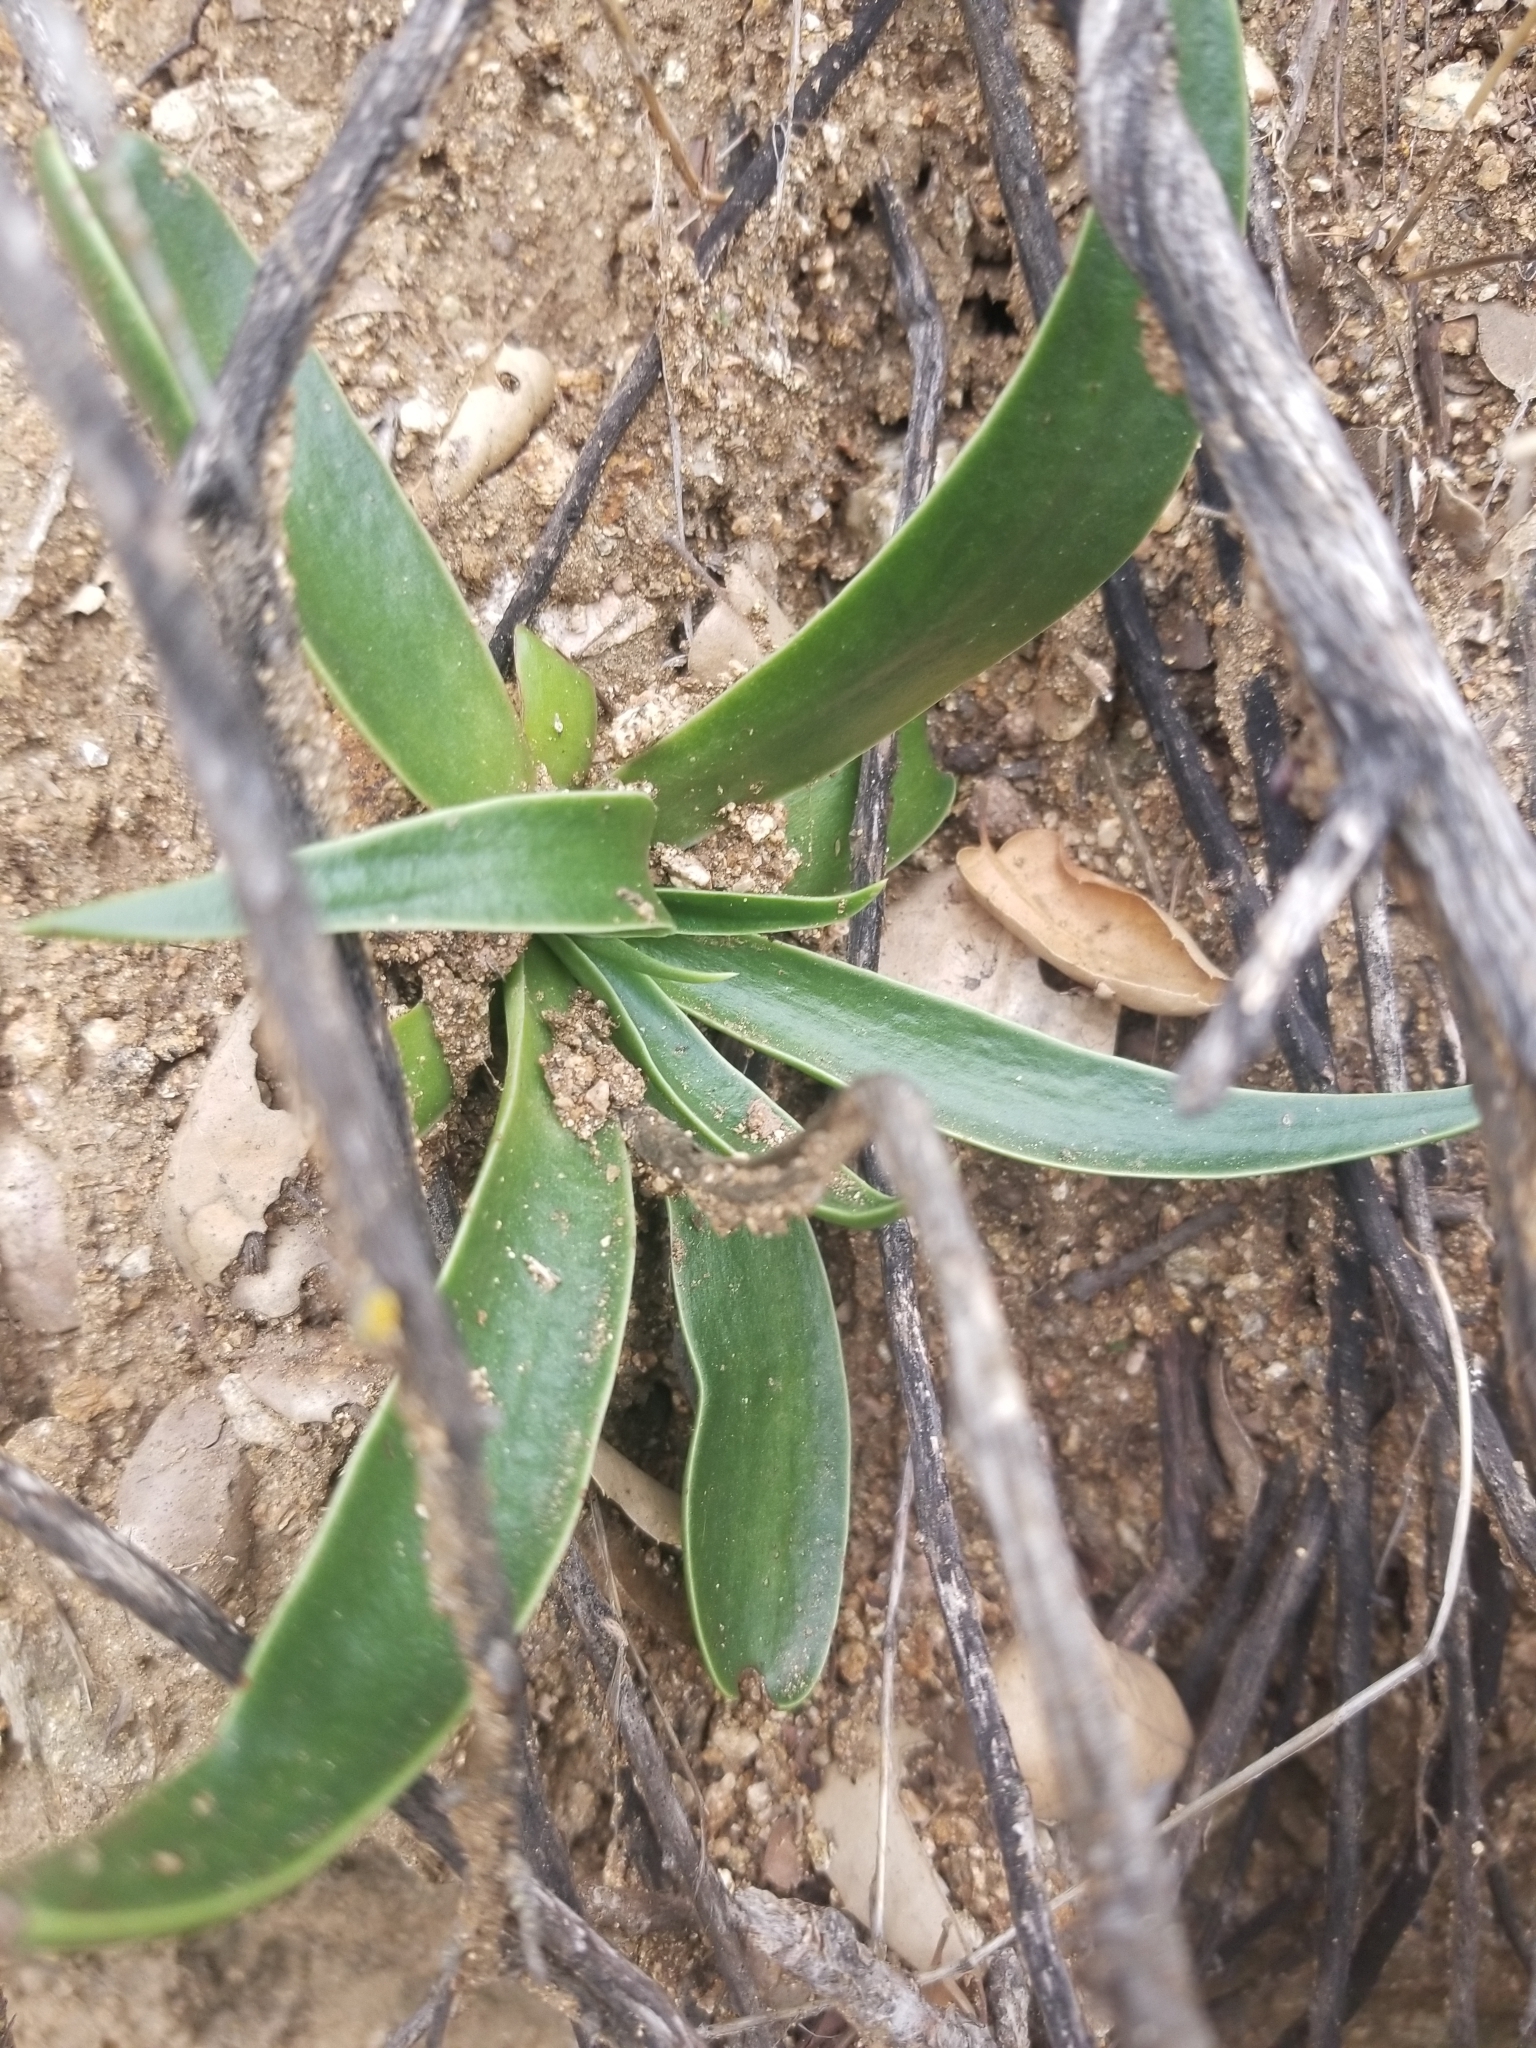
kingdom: Plantae
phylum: Tracheophyta
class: Magnoliopsida
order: Saxifragales
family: Crassulaceae
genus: Dudleya
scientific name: Dudleya lanceolata
